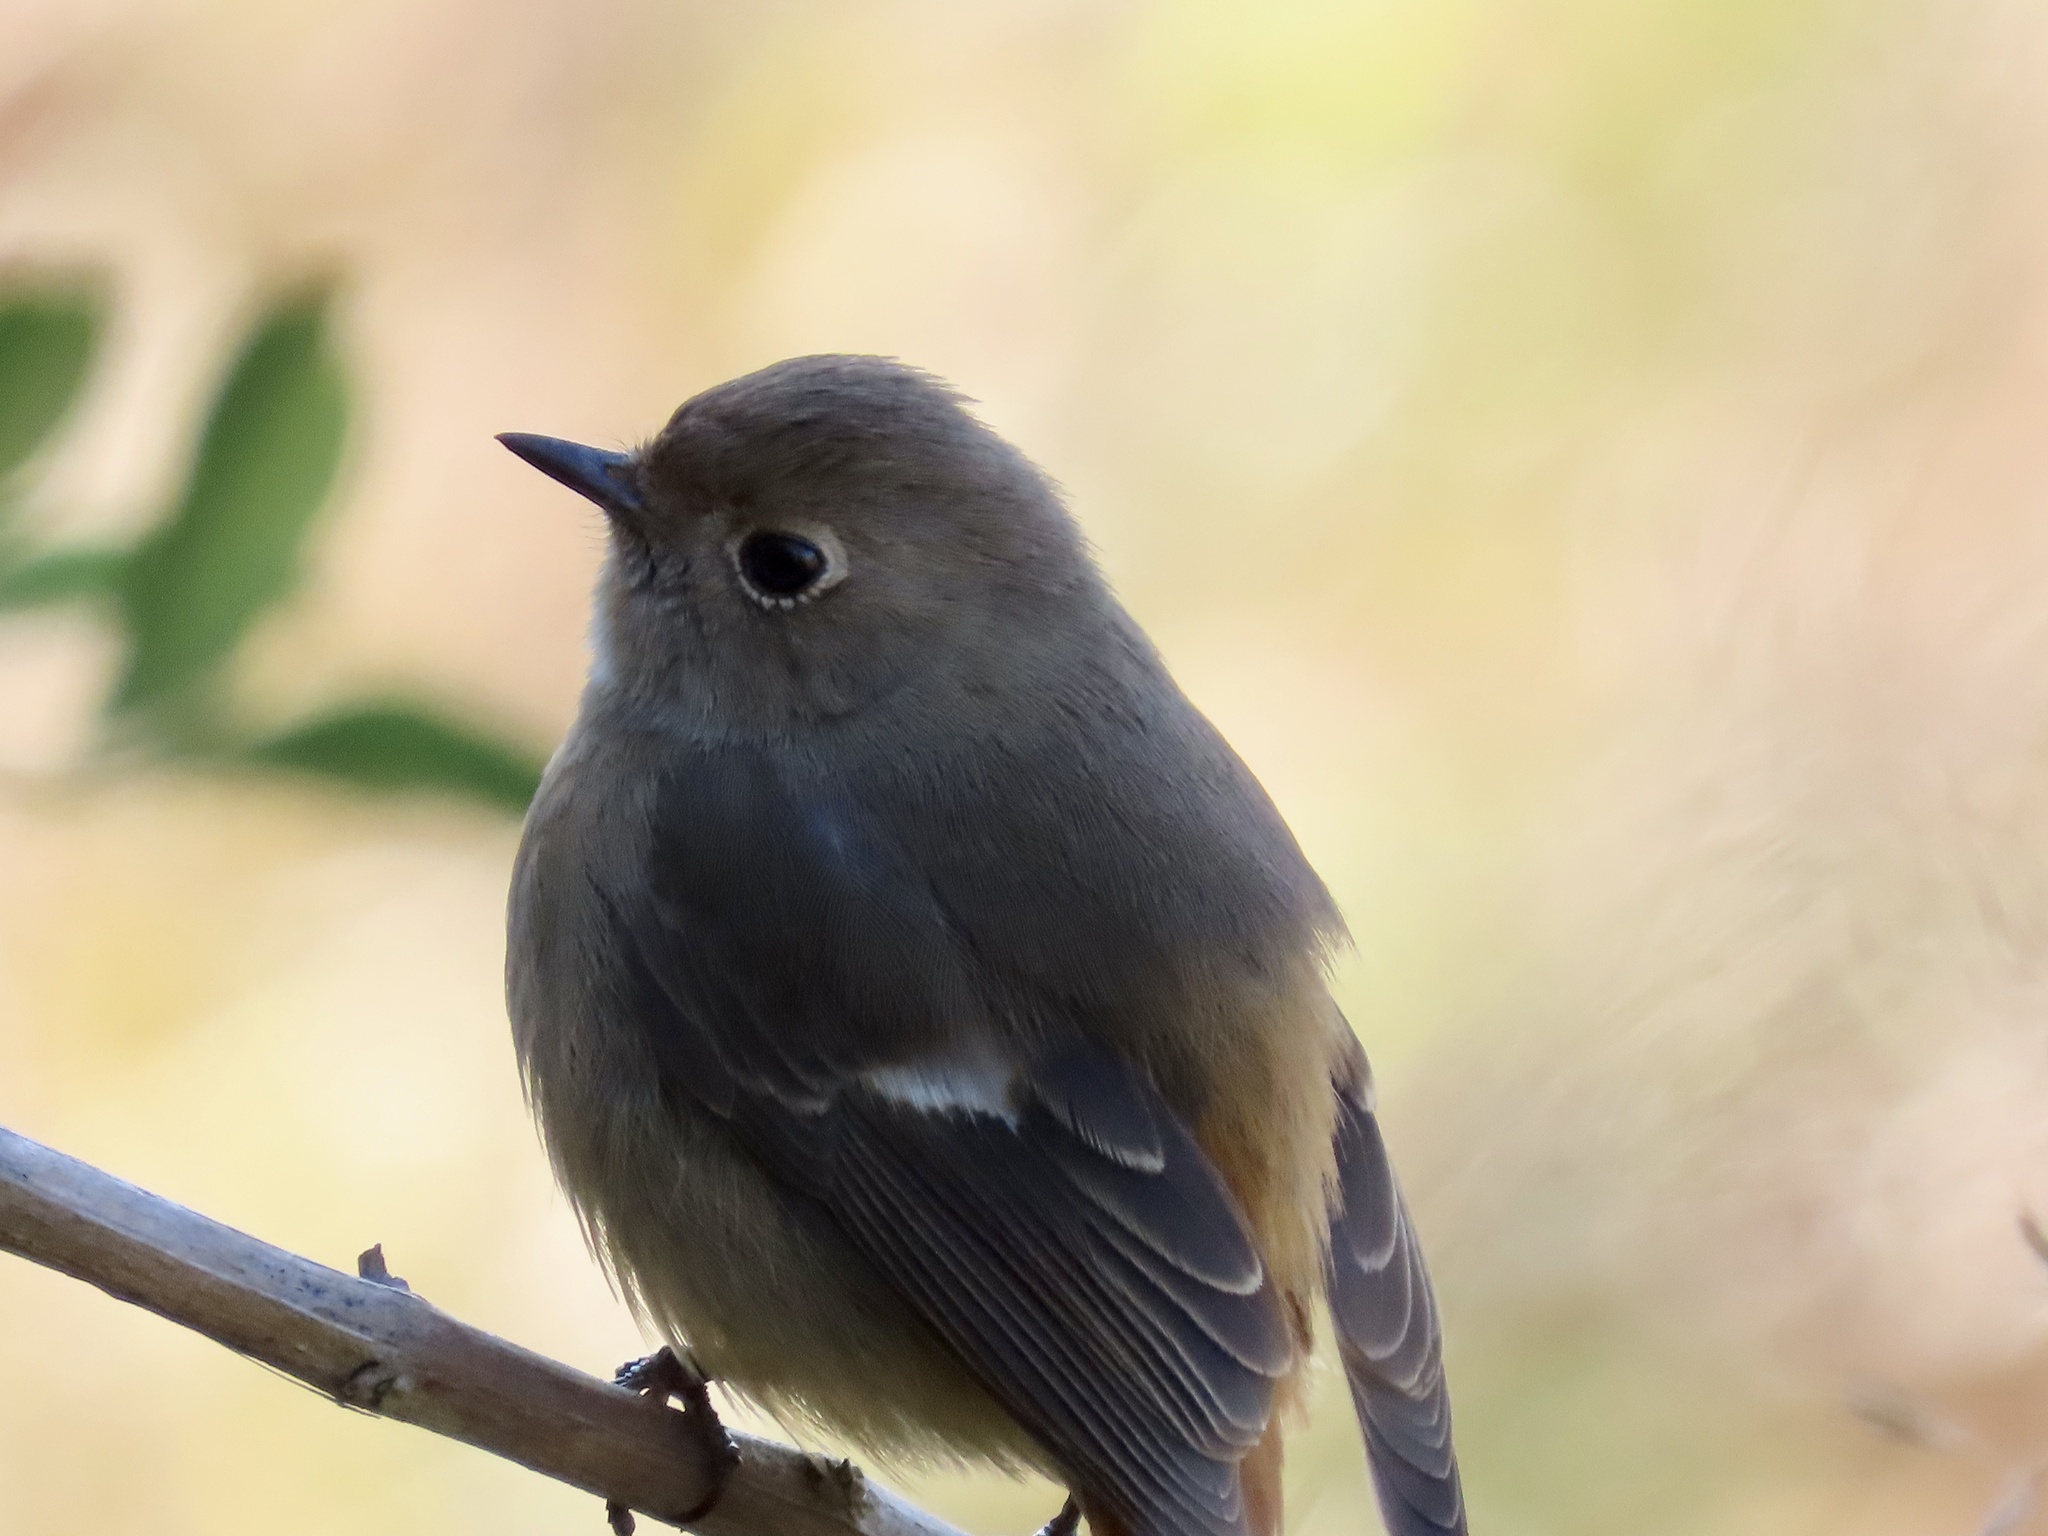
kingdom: Animalia
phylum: Chordata
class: Aves
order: Passeriformes
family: Muscicapidae
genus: Phoenicurus
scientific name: Phoenicurus auroreus
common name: Daurian redstart
